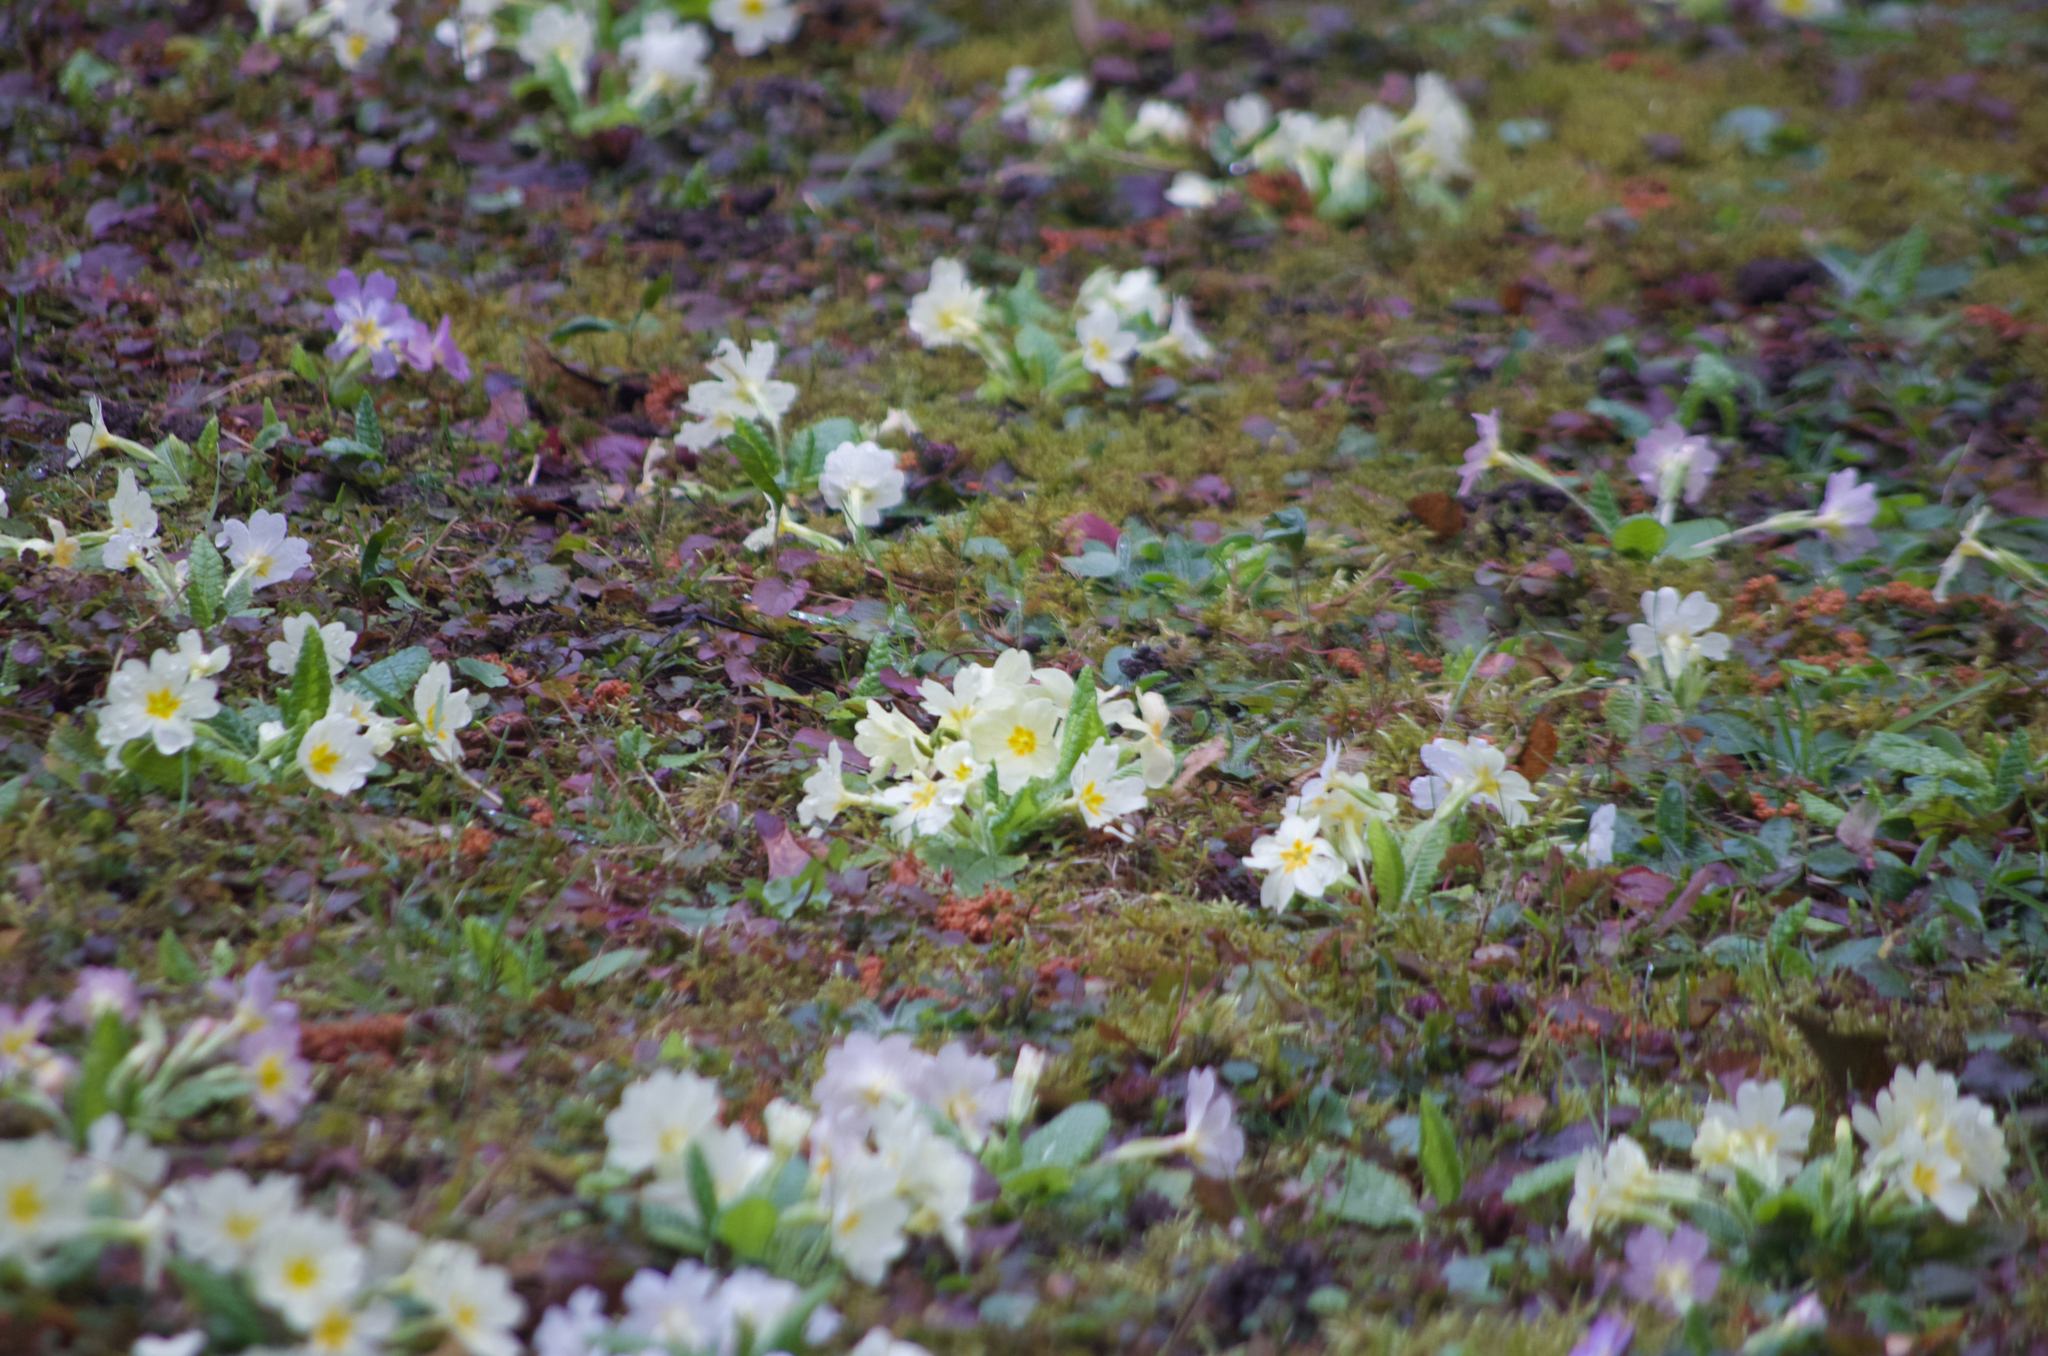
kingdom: Plantae
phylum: Tracheophyta
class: Magnoliopsida
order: Ericales
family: Primulaceae
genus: Primula
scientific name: Primula vulgaris
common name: Primrose
